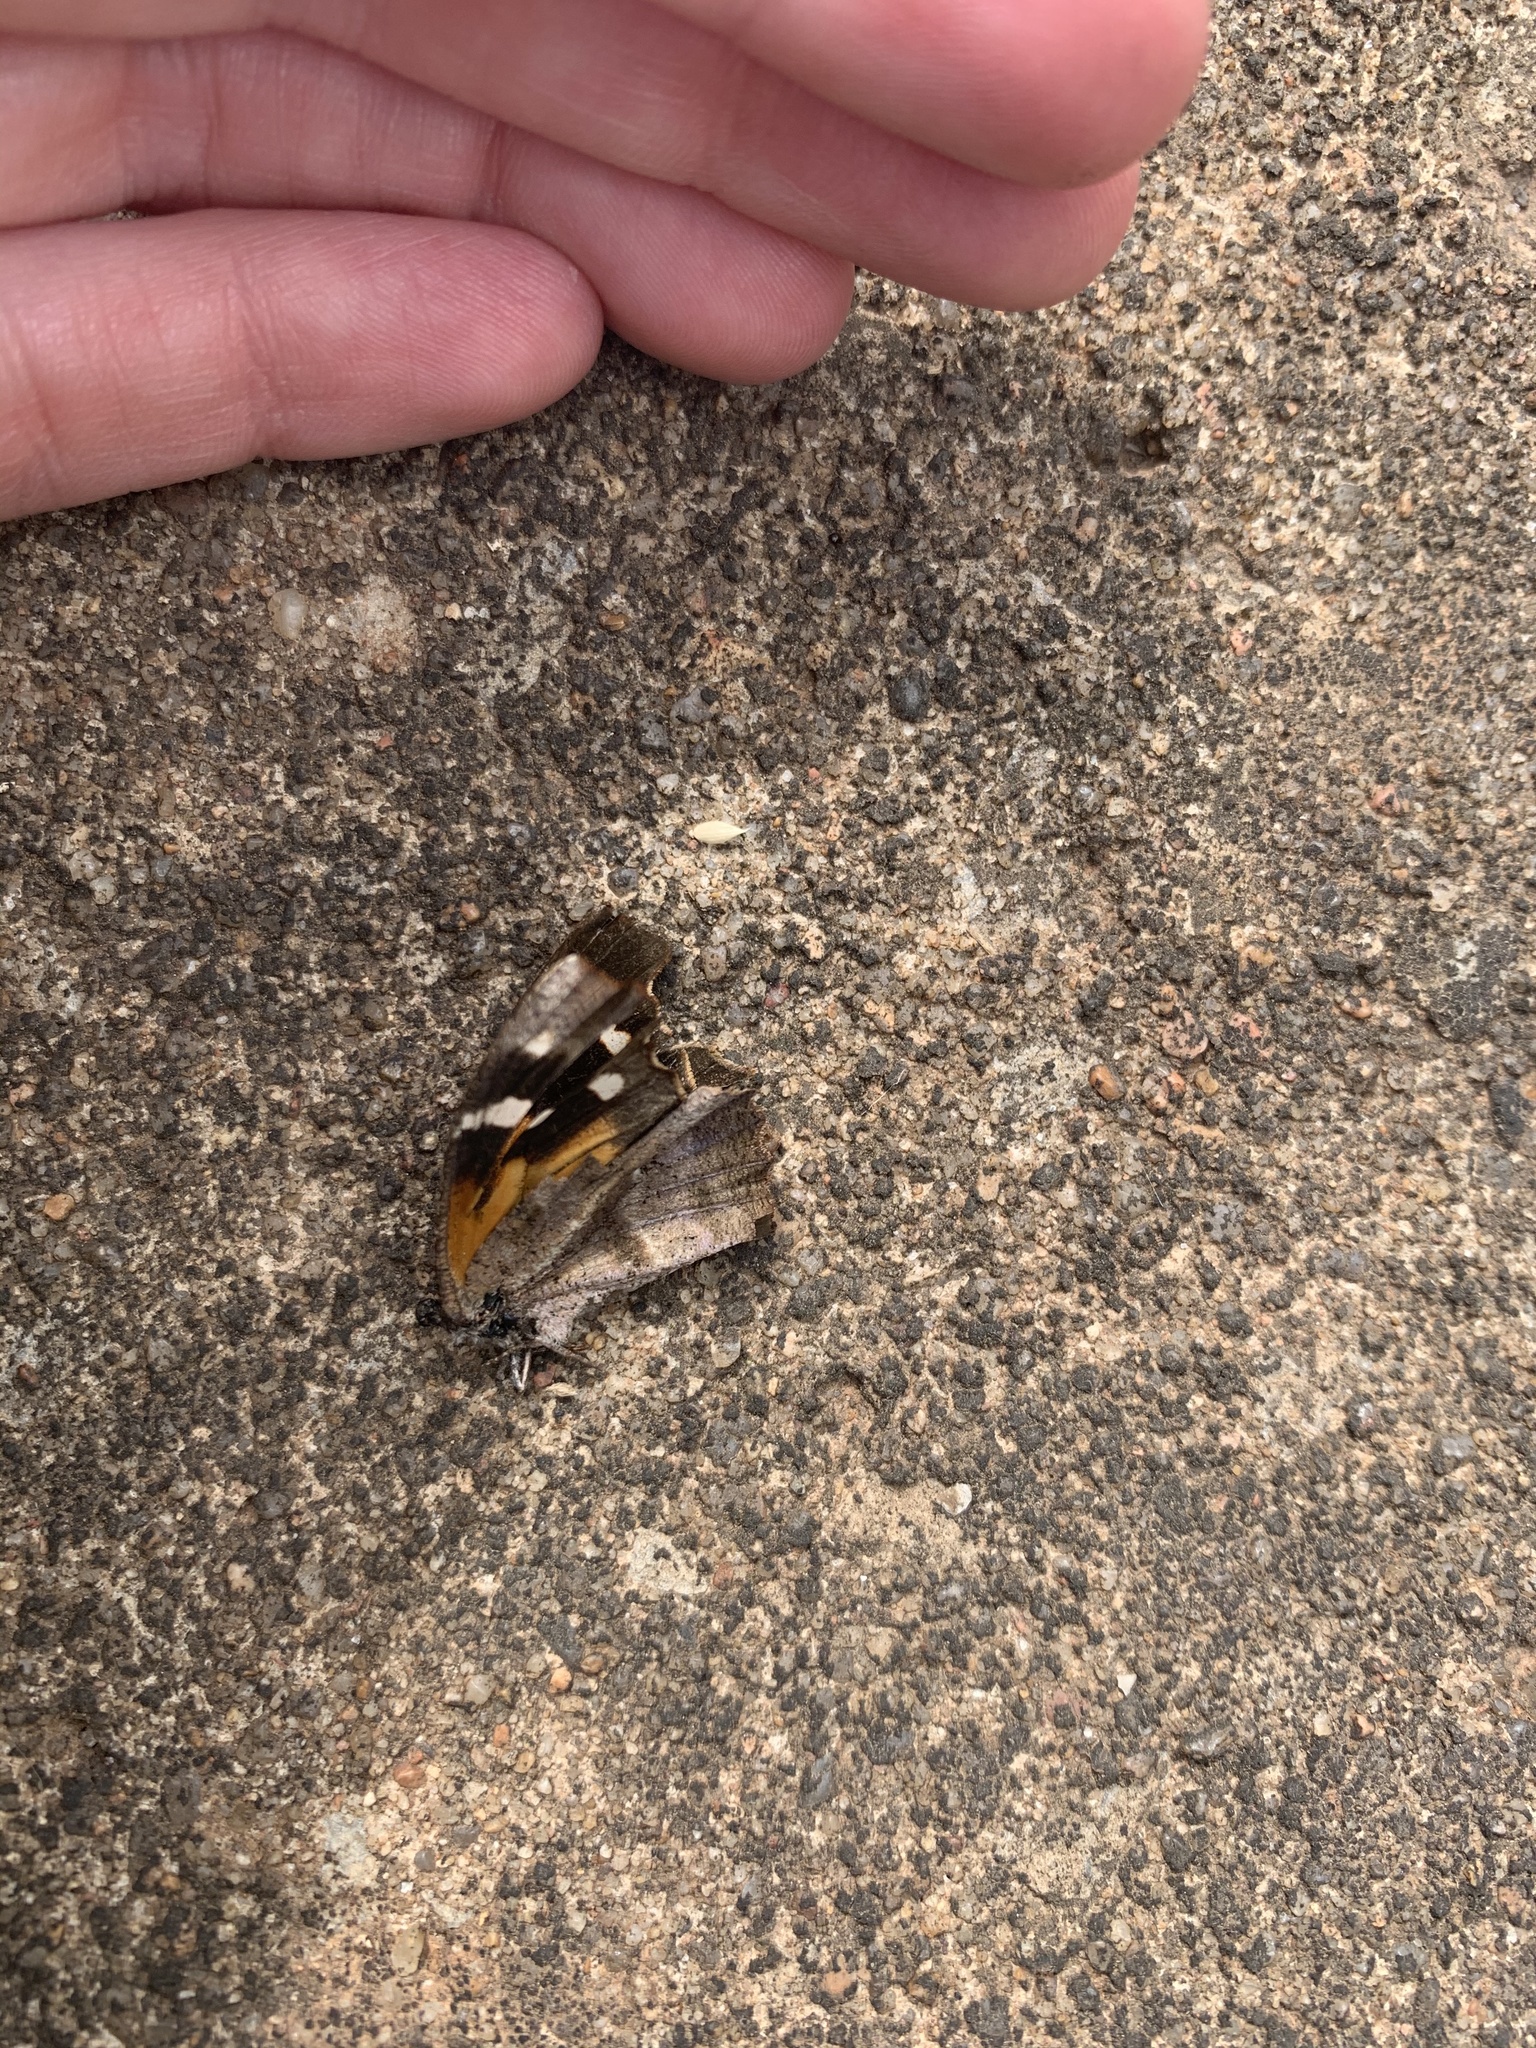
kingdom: Animalia
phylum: Arthropoda
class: Insecta
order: Lepidoptera
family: Nymphalidae
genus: Libytheana
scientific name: Libytheana carinenta
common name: American snout
